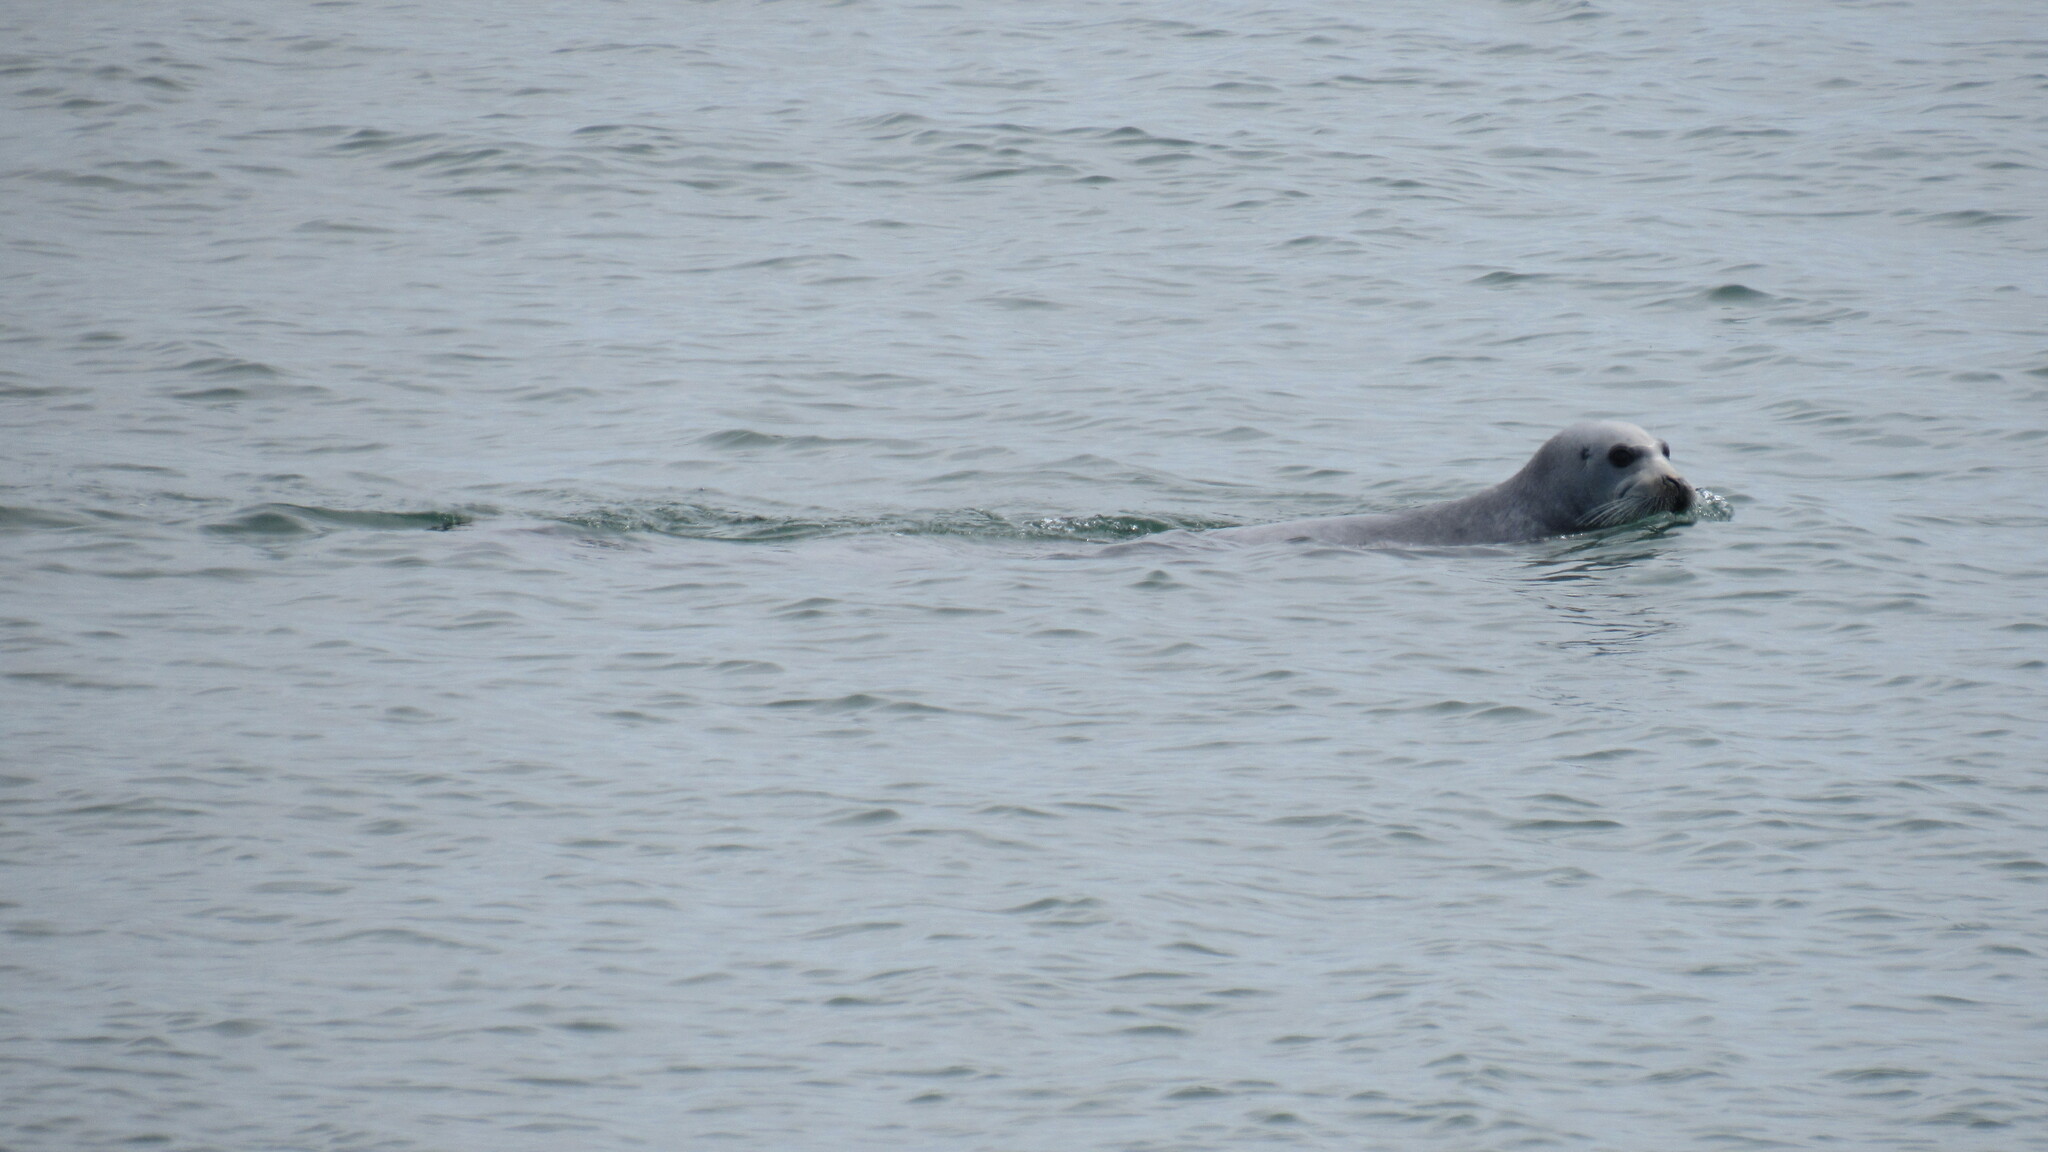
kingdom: Animalia
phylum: Chordata
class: Mammalia
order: Carnivora
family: Phocidae
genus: Erignathus
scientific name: Erignathus barbatus
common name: Bearded seal
